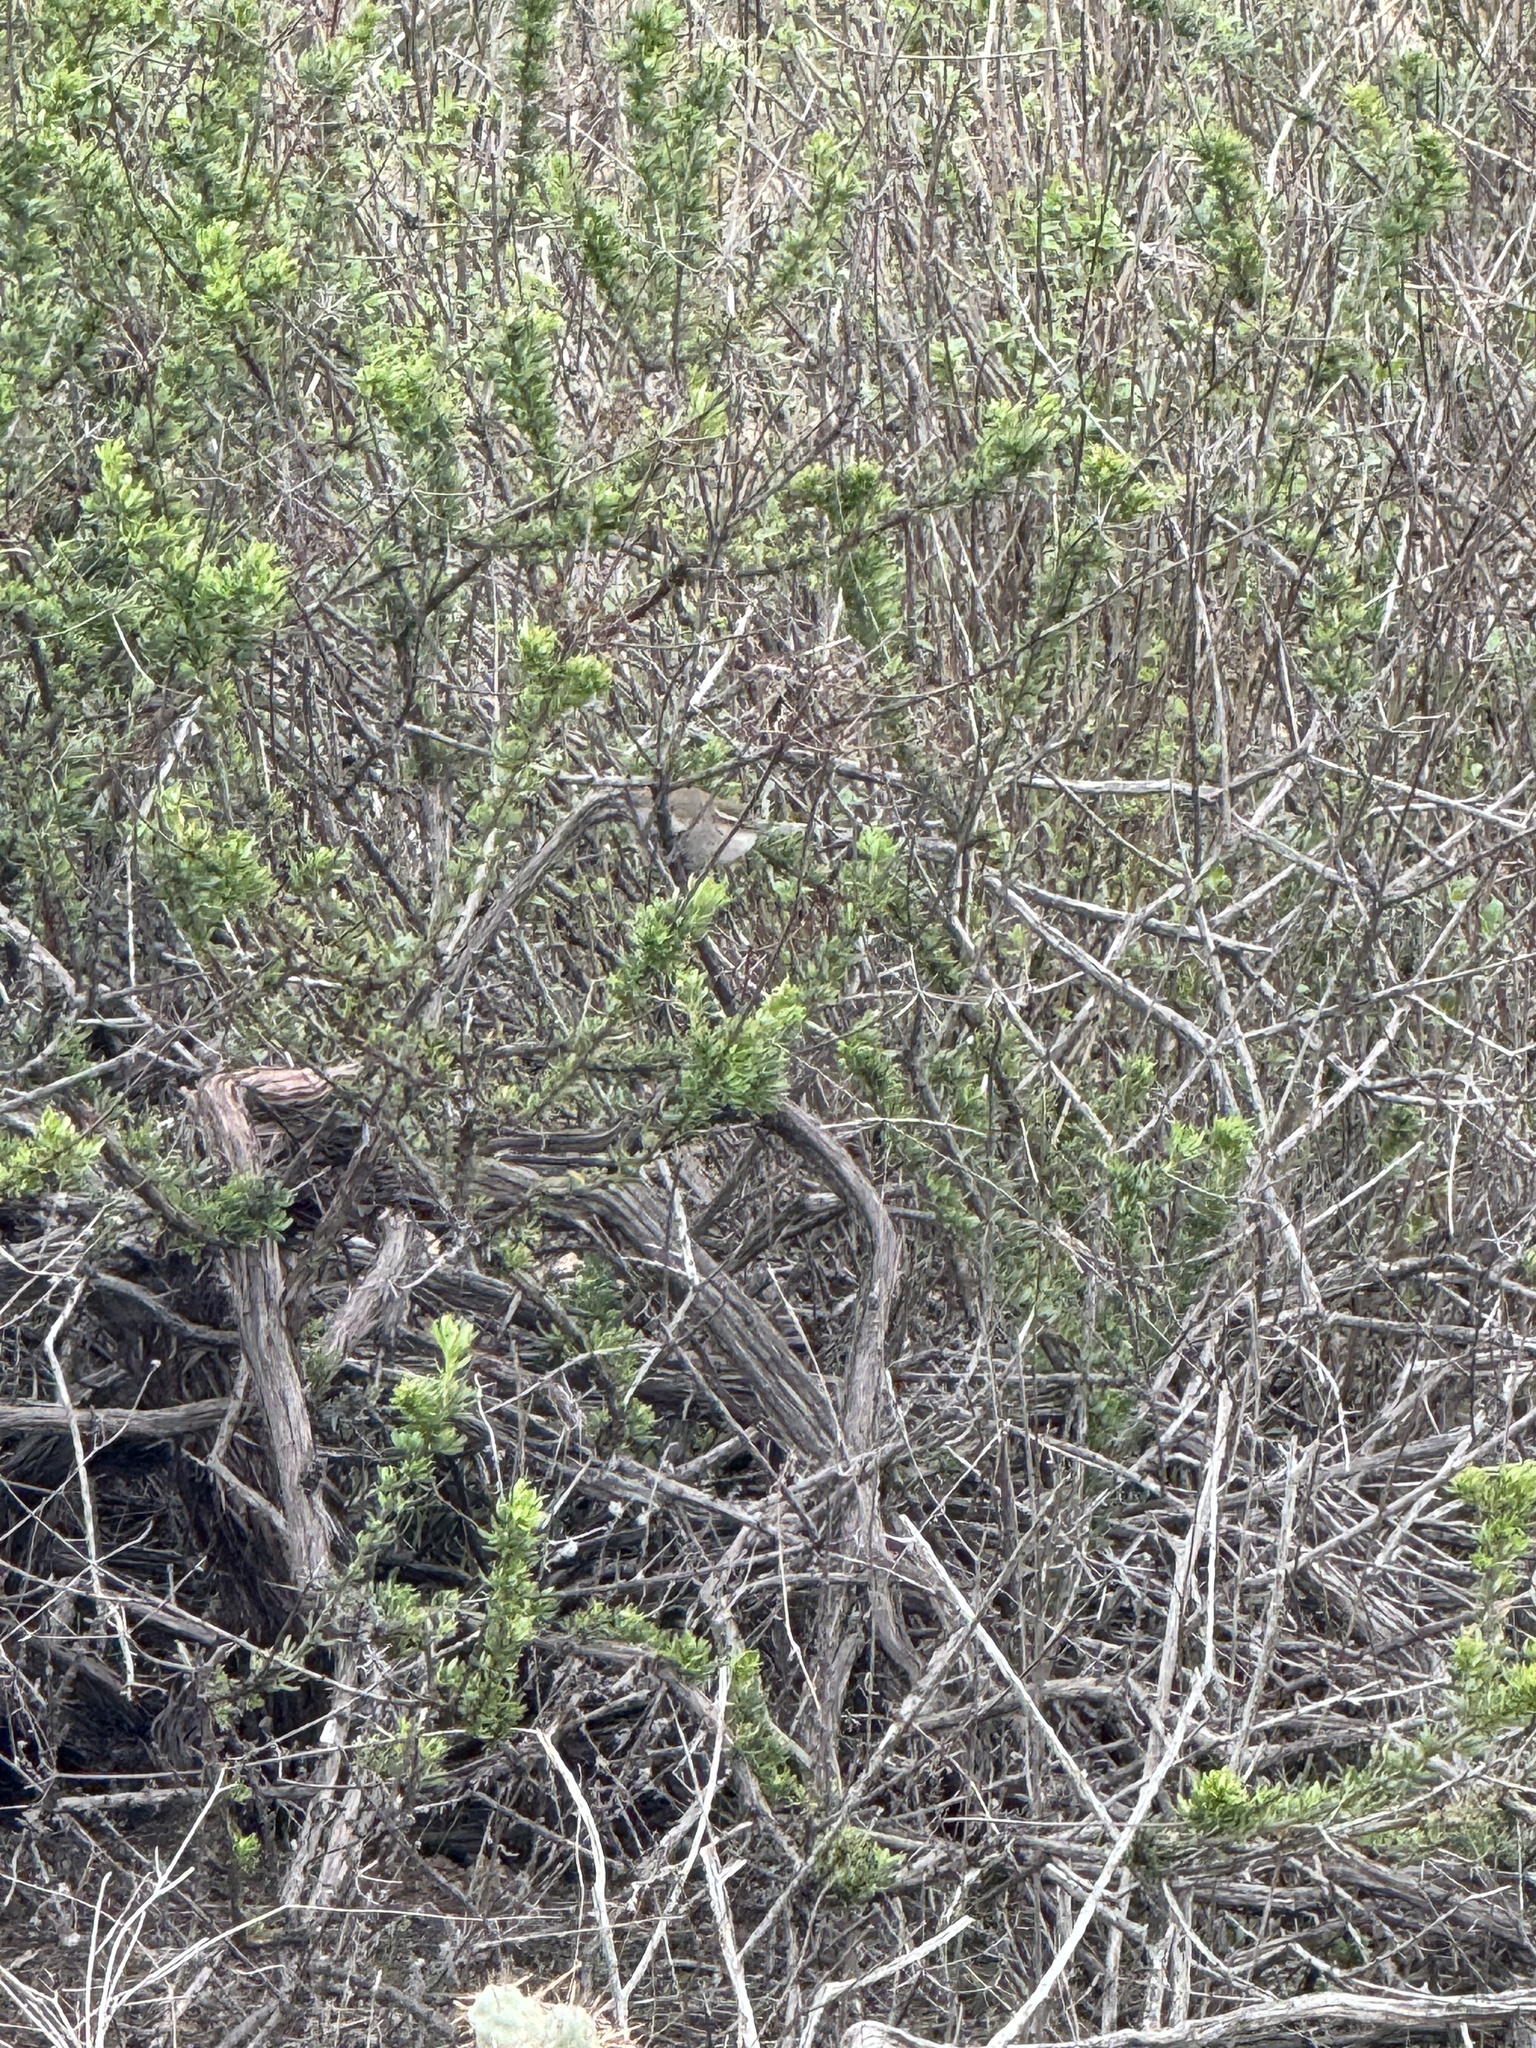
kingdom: Animalia
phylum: Chordata
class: Aves
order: Passeriformes
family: Troglodytidae
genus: Thryomanes
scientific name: Thryomanes bewickii
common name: Bewick's wren
